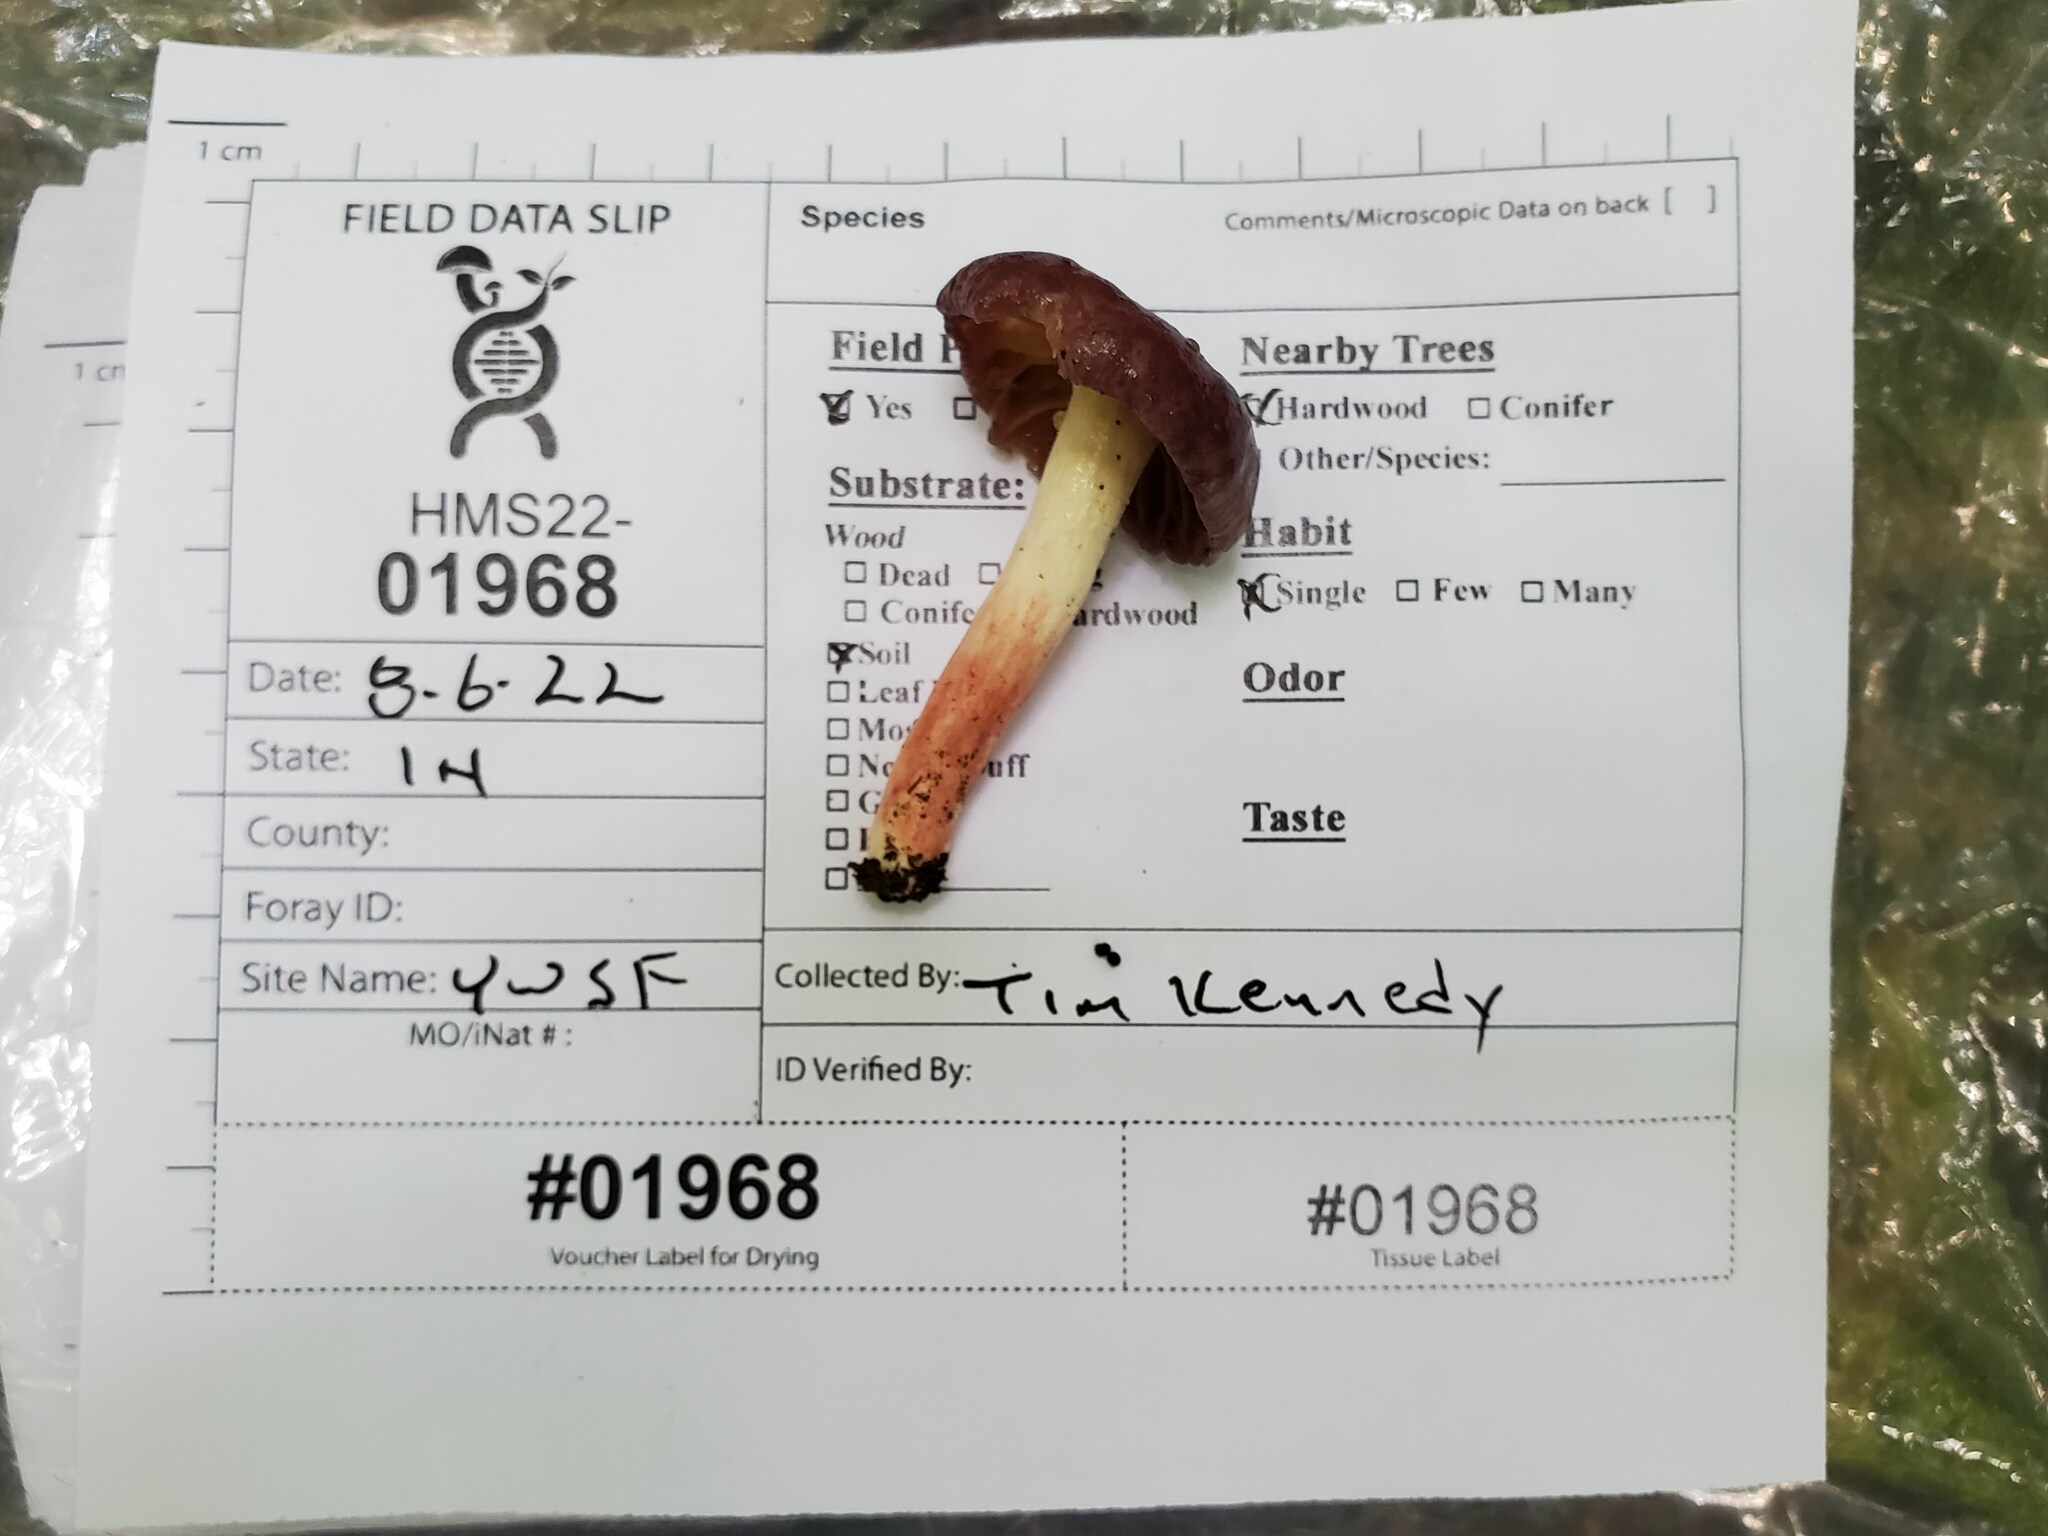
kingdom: Fungi
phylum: Basidiomycota
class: Agaricomycetes
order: Russulales
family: Russulaceae
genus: Russula
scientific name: Russula mariae
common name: Purple-bloom russula
